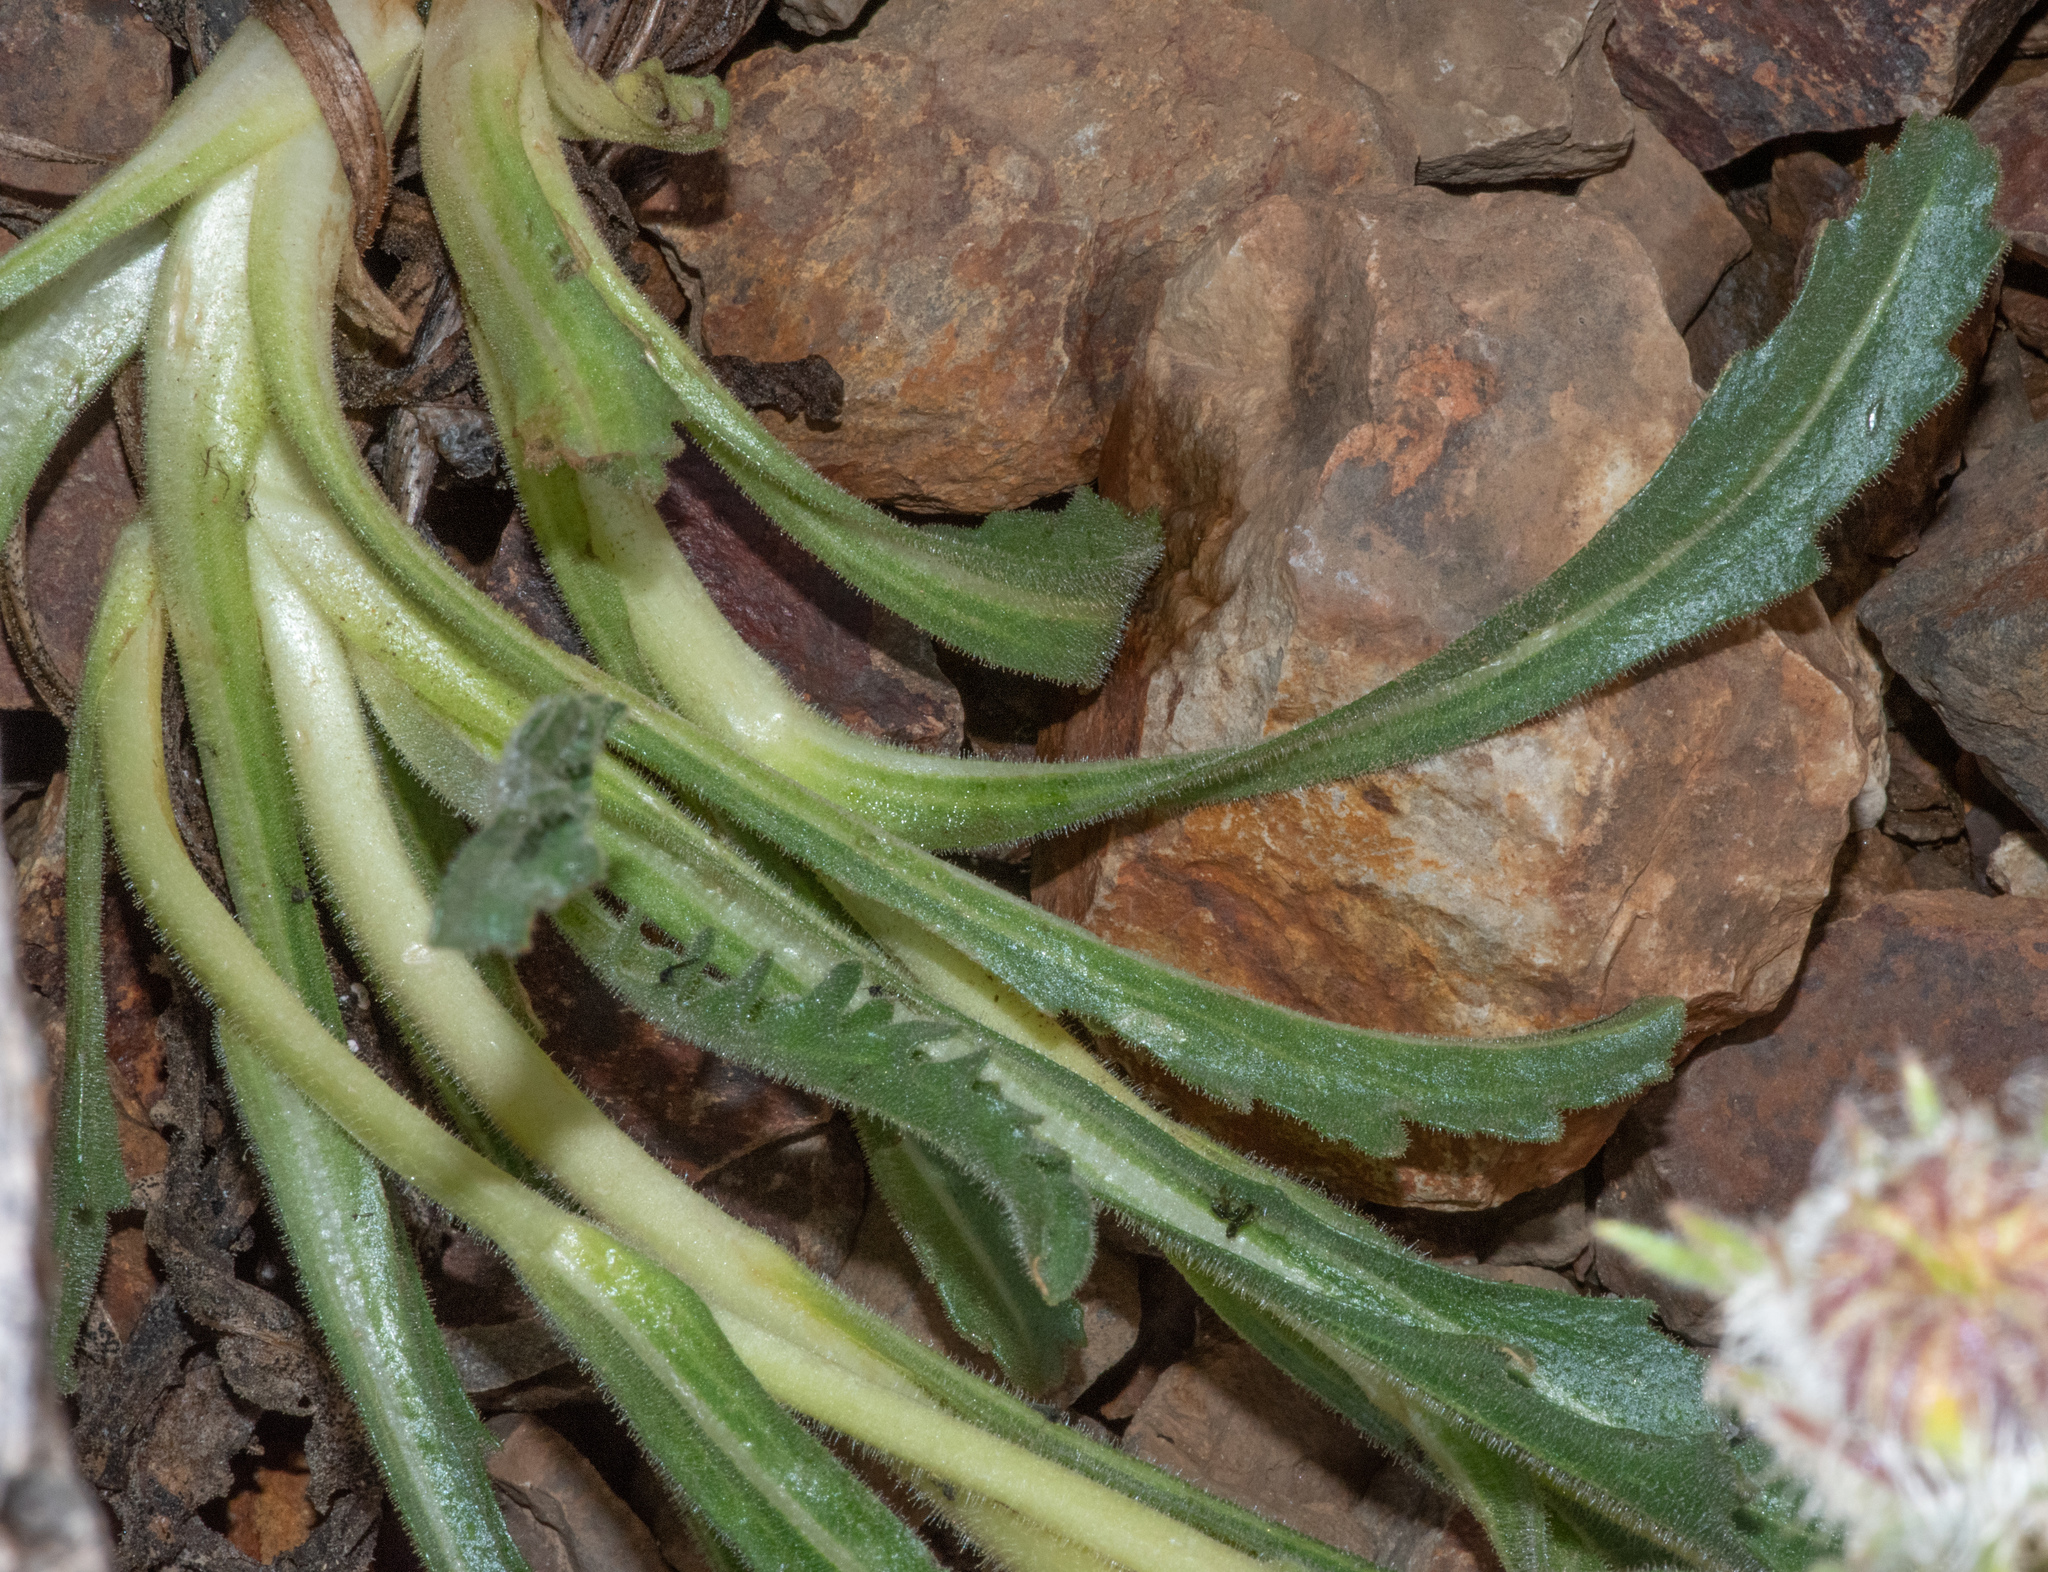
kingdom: Plantae
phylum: Tracheophyta
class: Magnoliopsida
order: Asterales
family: Asteraceae
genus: Hulsea
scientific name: Hulsea algida
